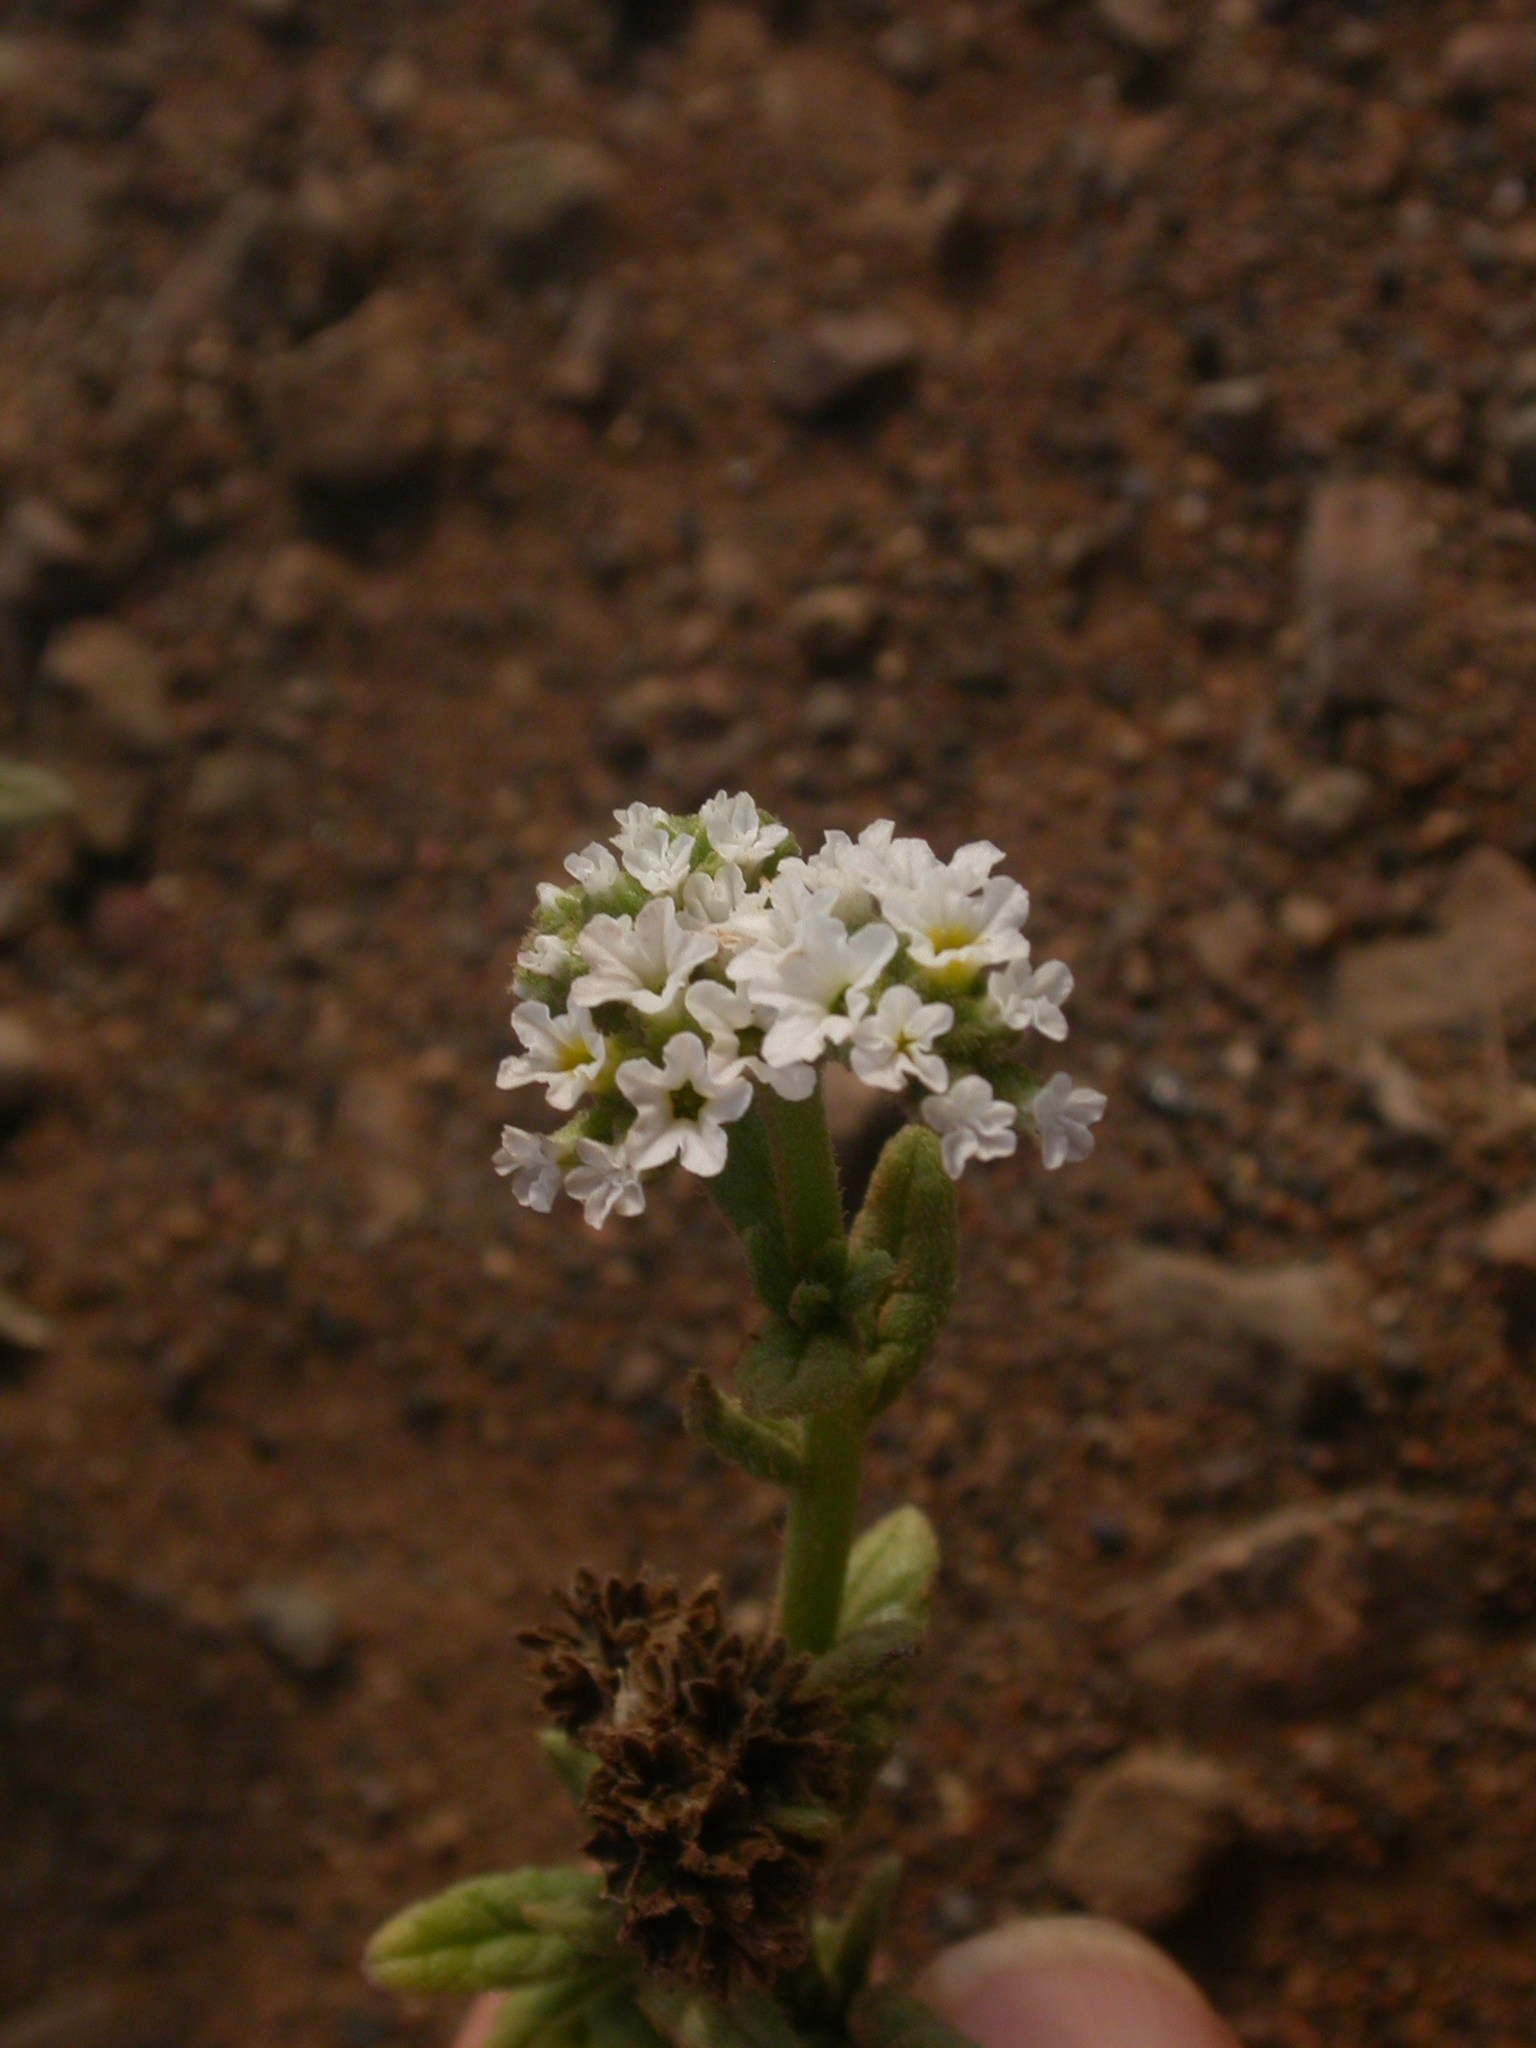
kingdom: Plantae
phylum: Tracheophyta
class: Magnoliopsida
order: Boraginales
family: Heliotropiaceae
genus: Heliotropium
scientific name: Heliotropium ramosissimum
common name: Wavy heliotrope
